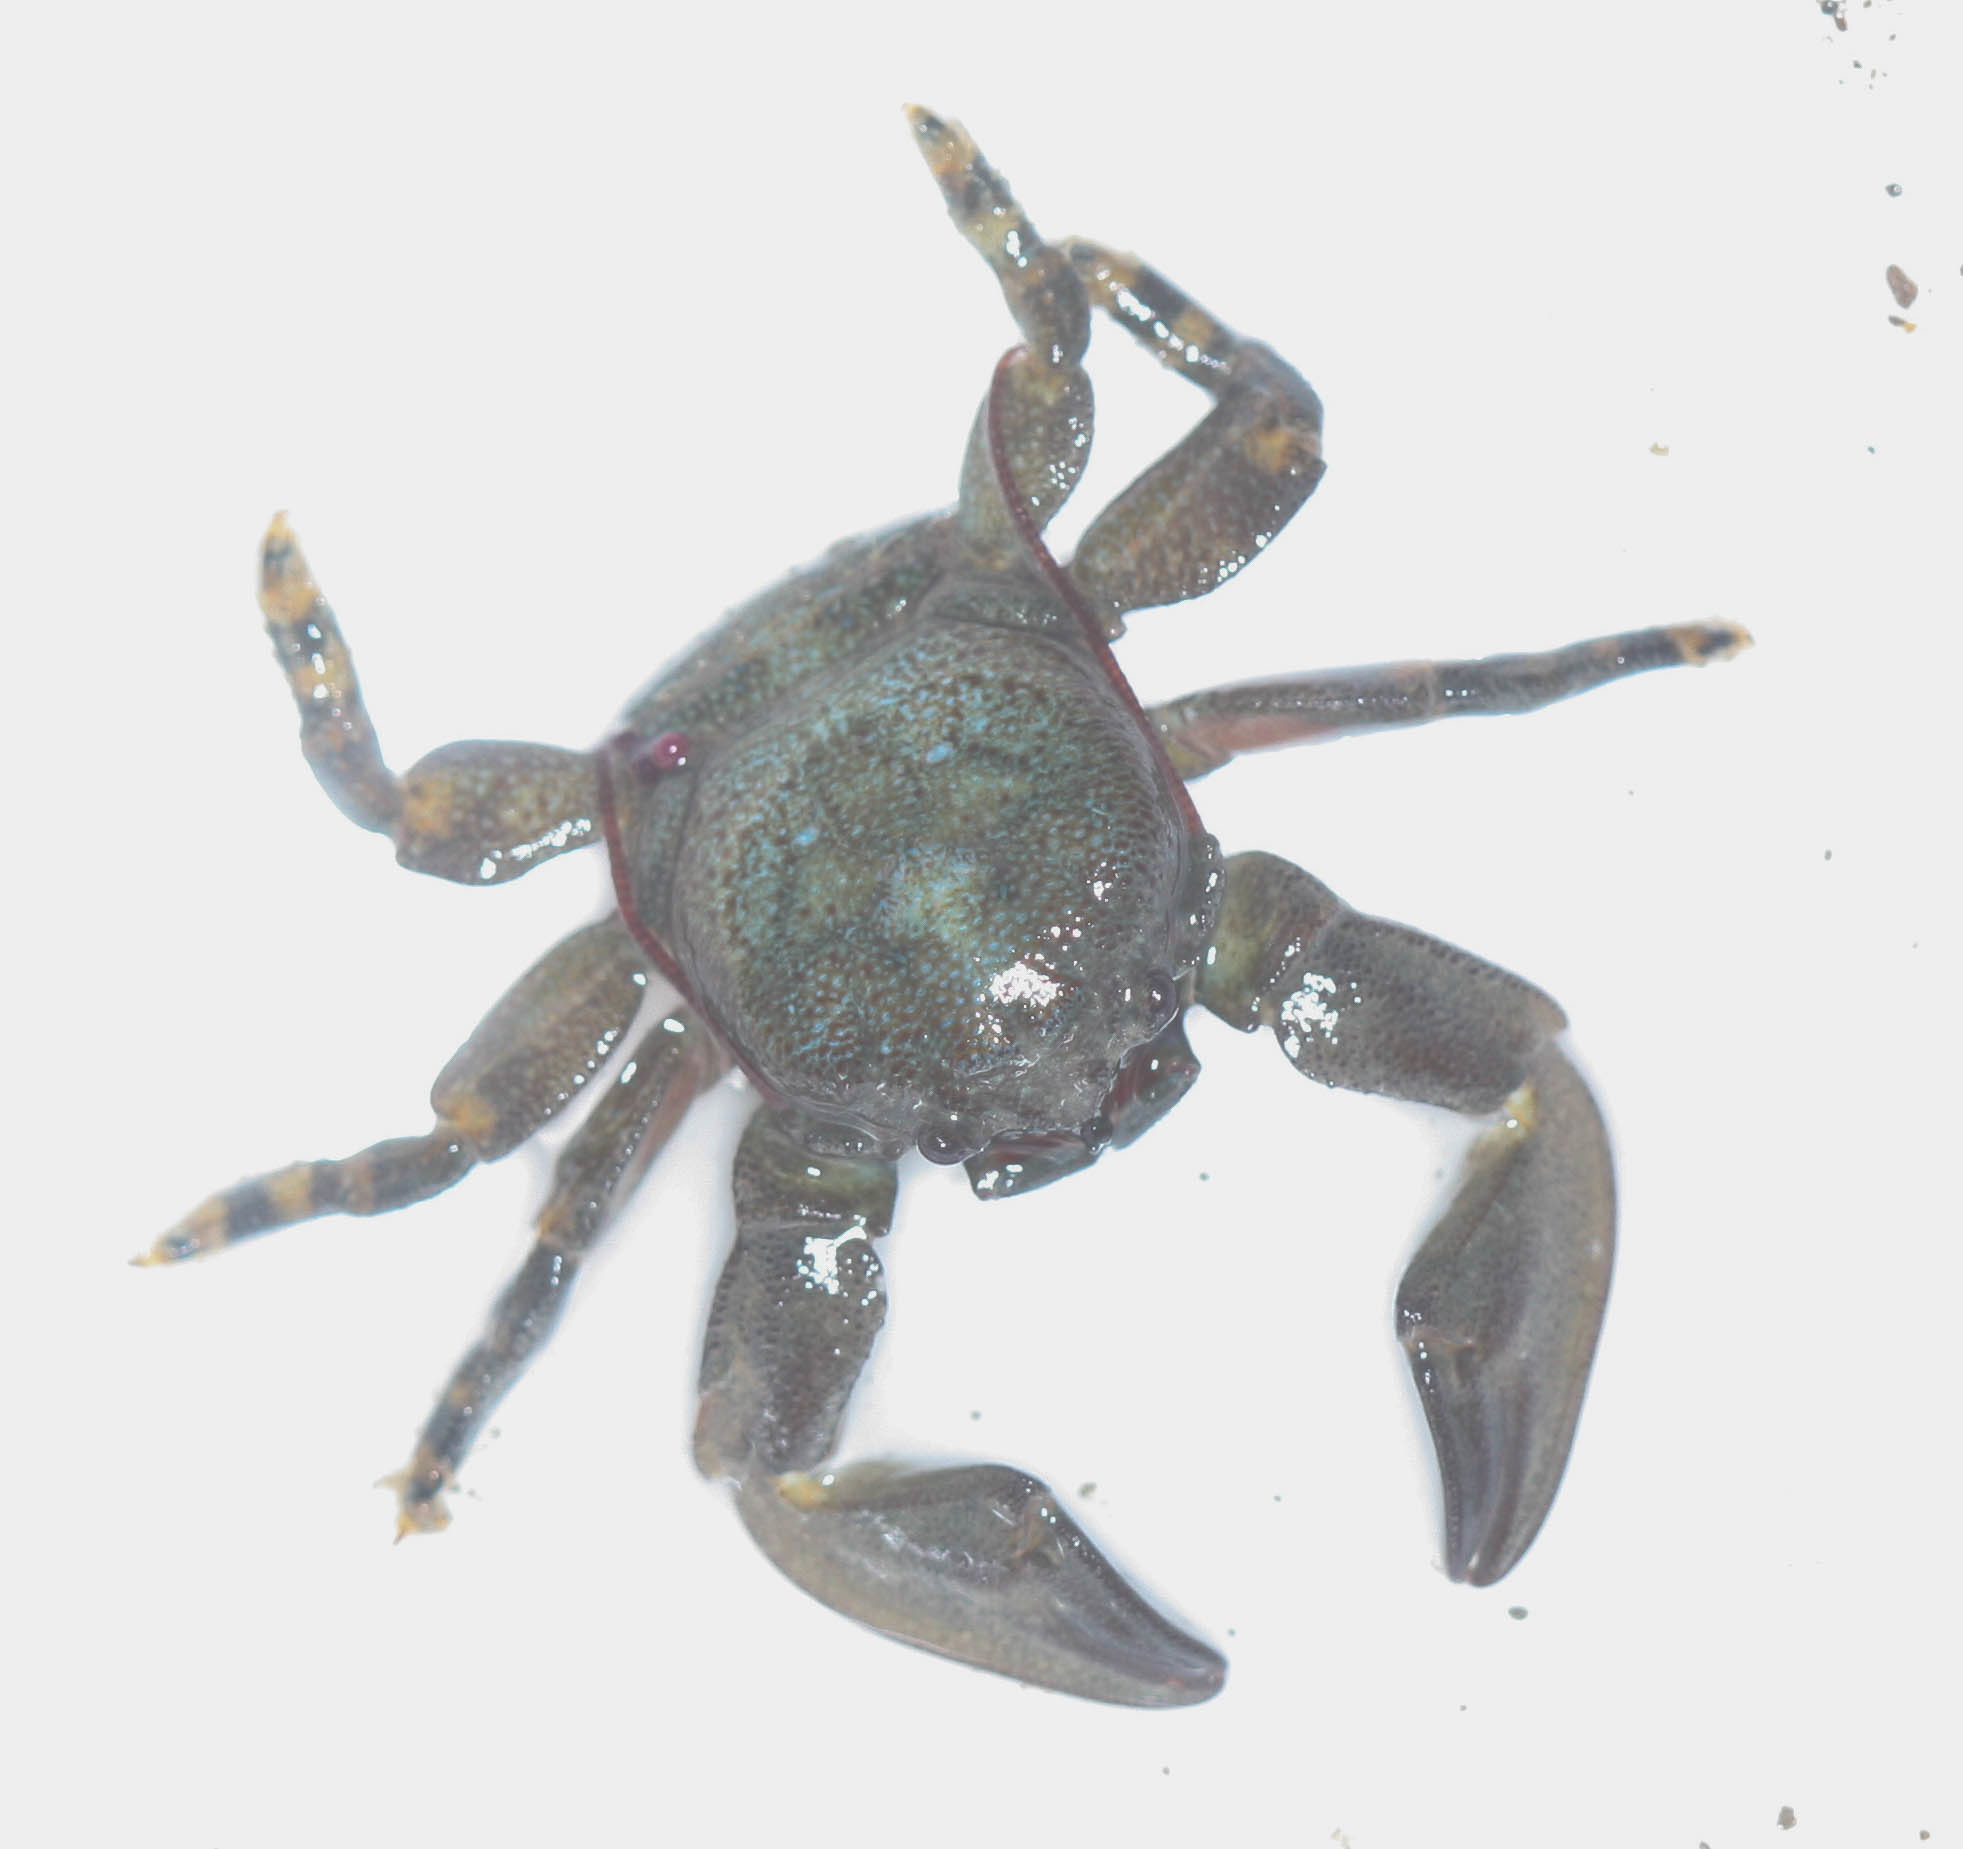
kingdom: Animalia
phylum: Arthropoda
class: Malacostraca
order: Decapoda
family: Porcellanidae
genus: Petrolisthes
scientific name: Petrolisthes cinctipes
